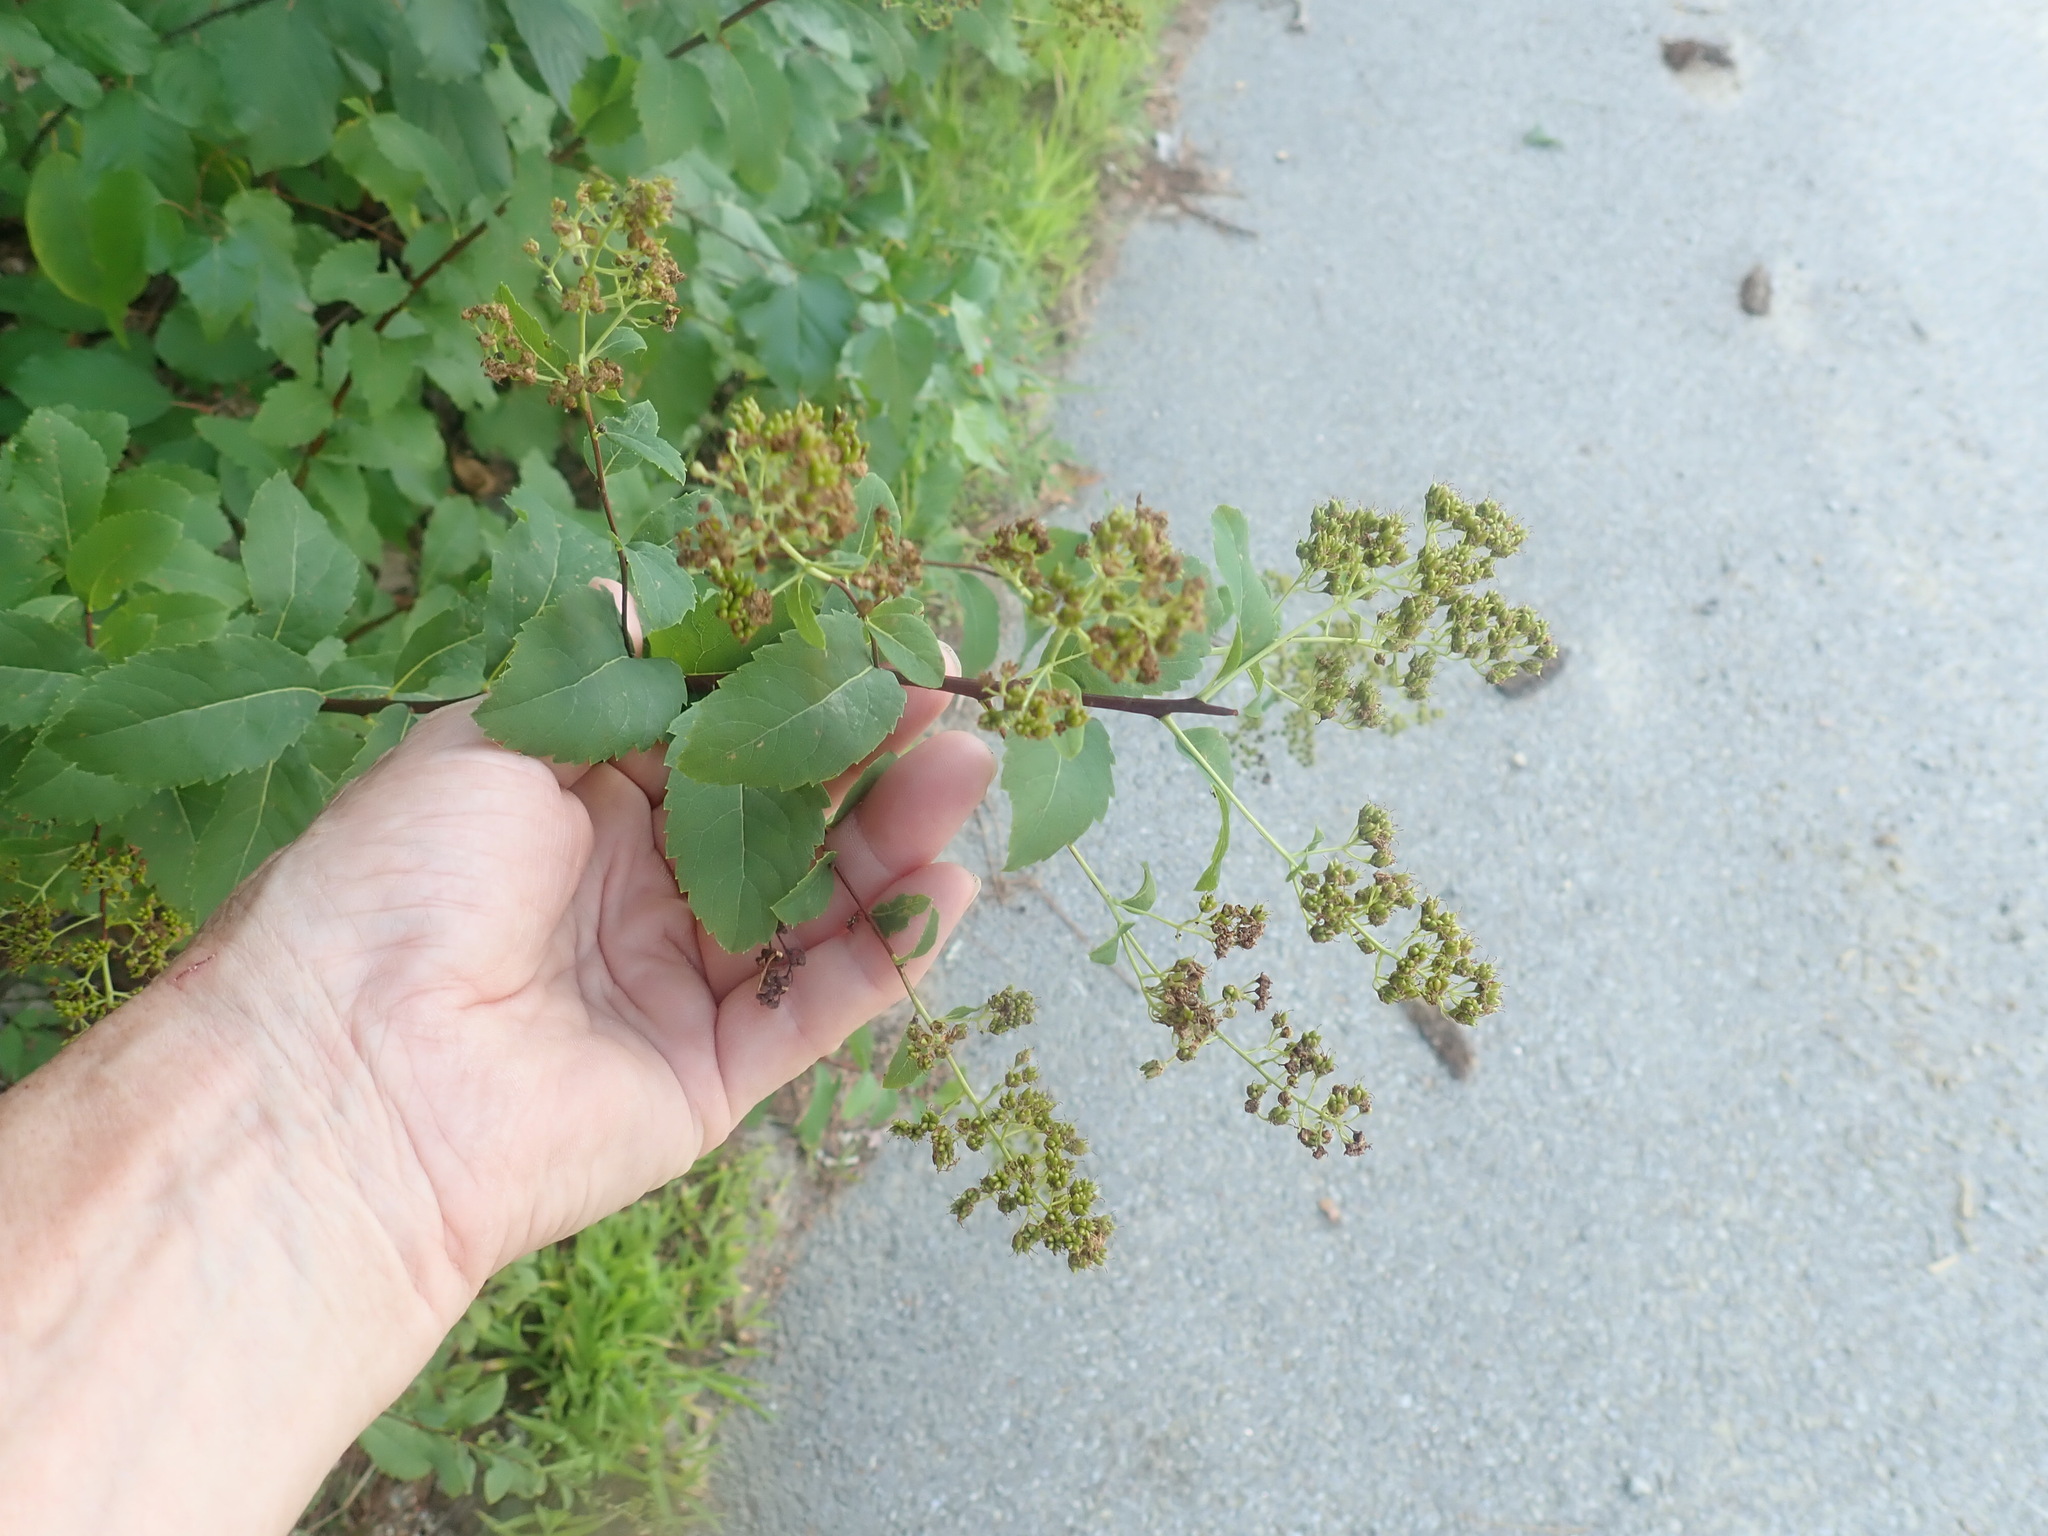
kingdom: Plantae
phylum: Tracheophyta
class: Magnoliopsida
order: Rosales
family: Rosaceae
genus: Spiraea
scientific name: Spiraea alba
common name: Pale bridewort
